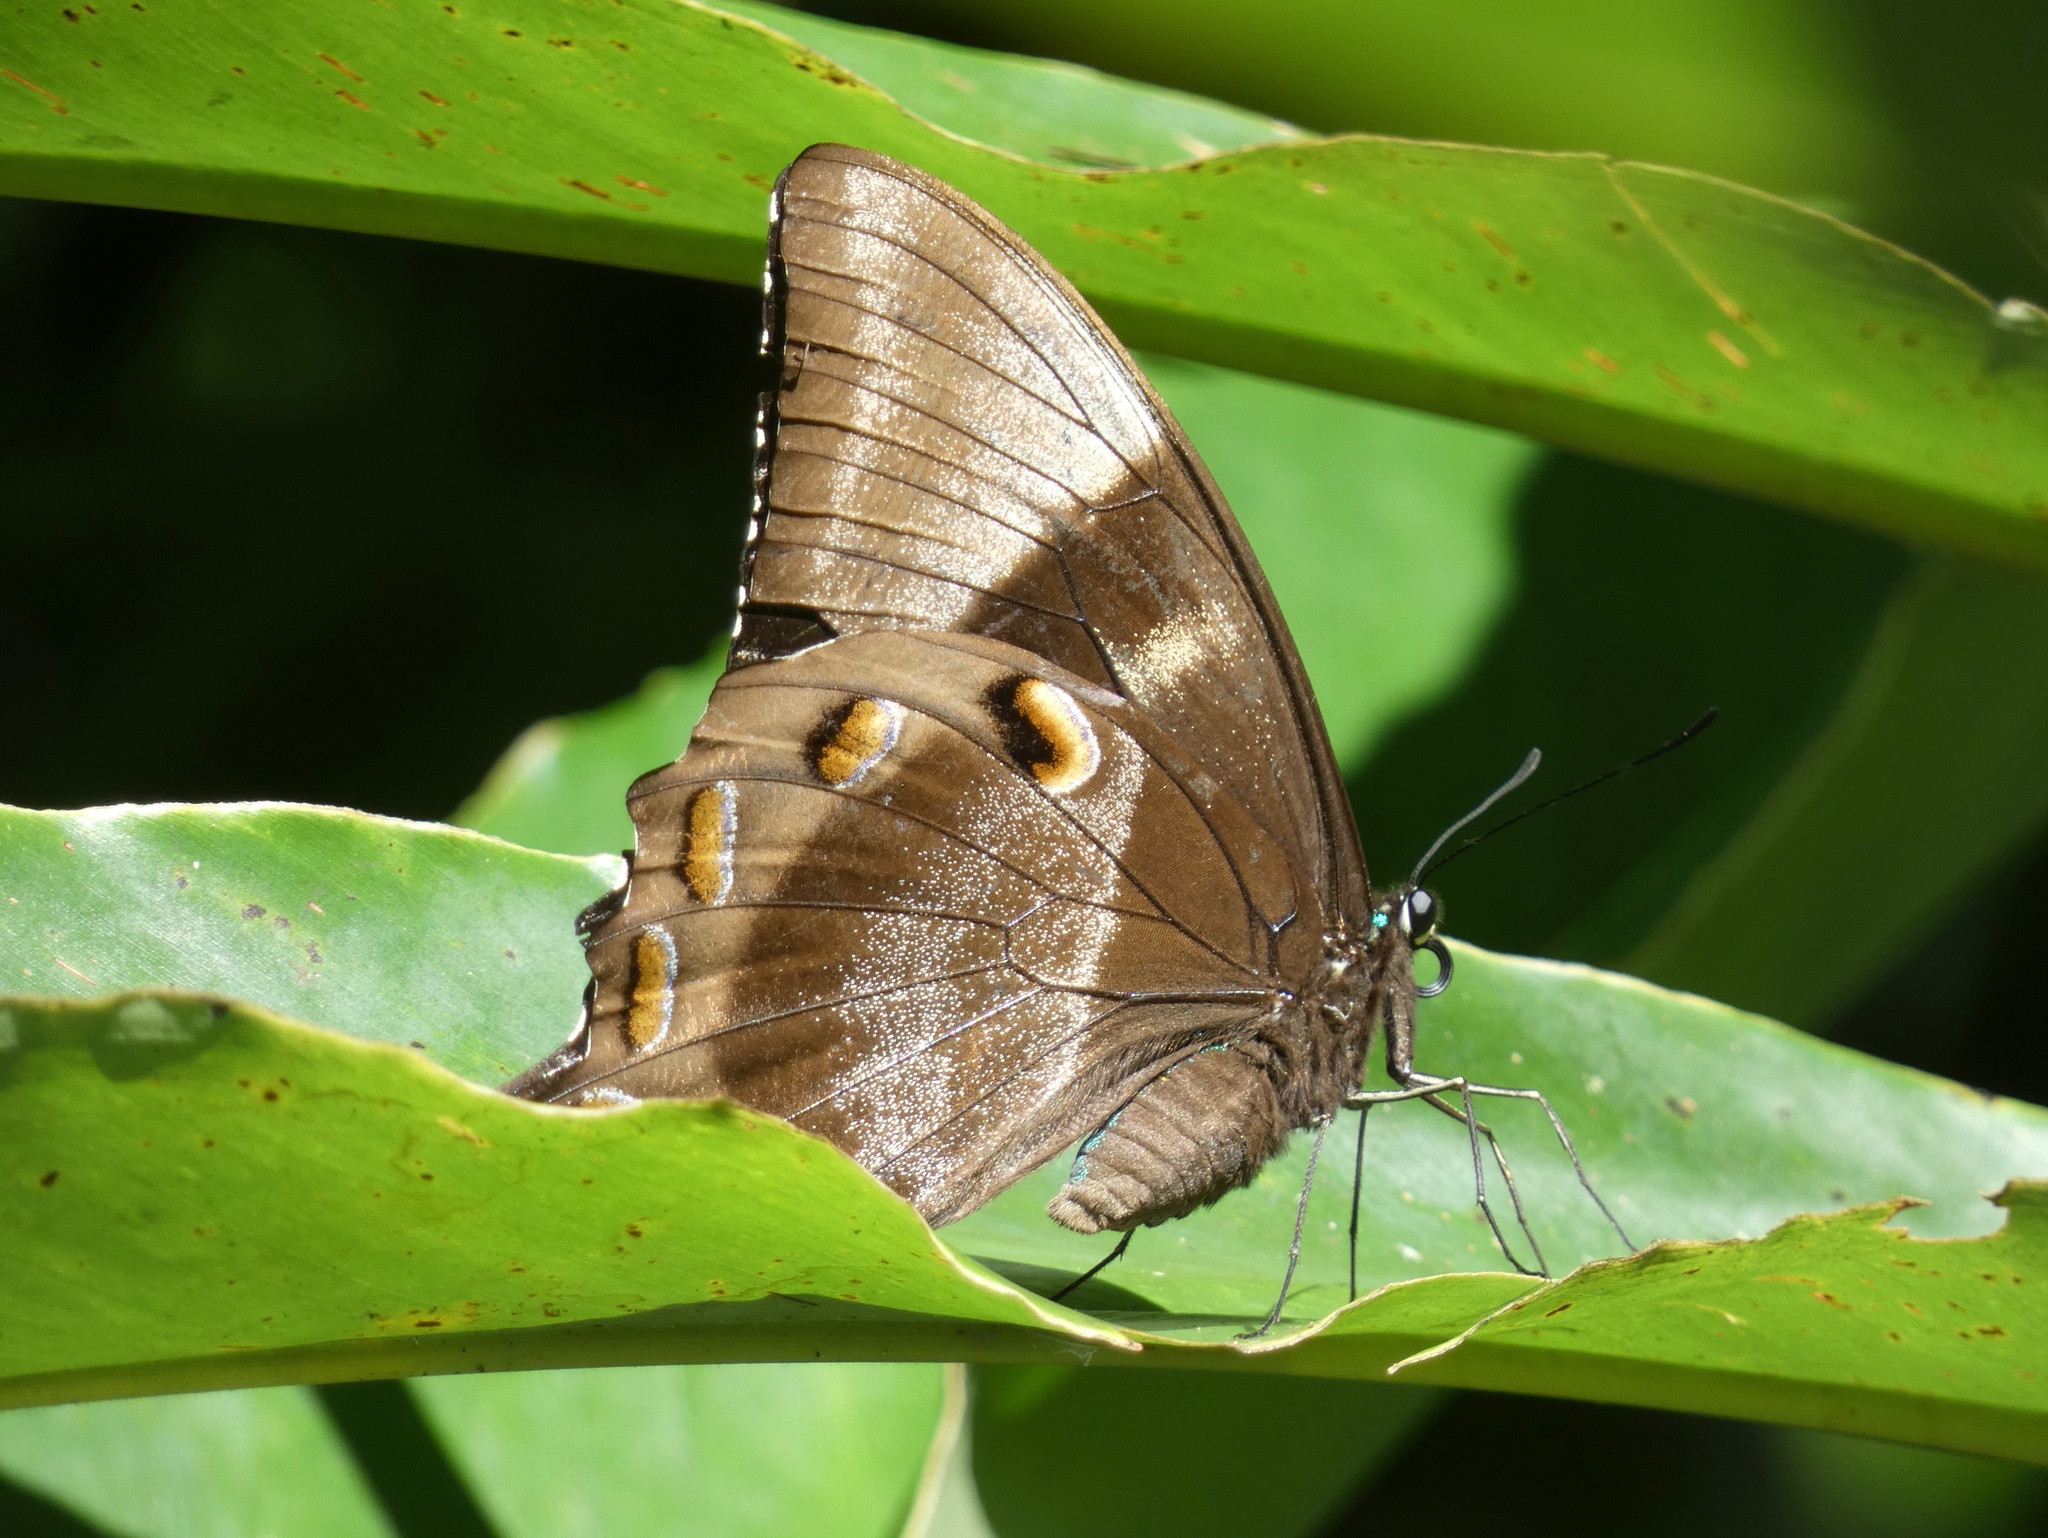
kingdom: Animalia
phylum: Arthropoda
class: Insecta
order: Lepidoptera
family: Papilionidae
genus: Papilio
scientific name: Papilio ulysses
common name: Blue emperor
